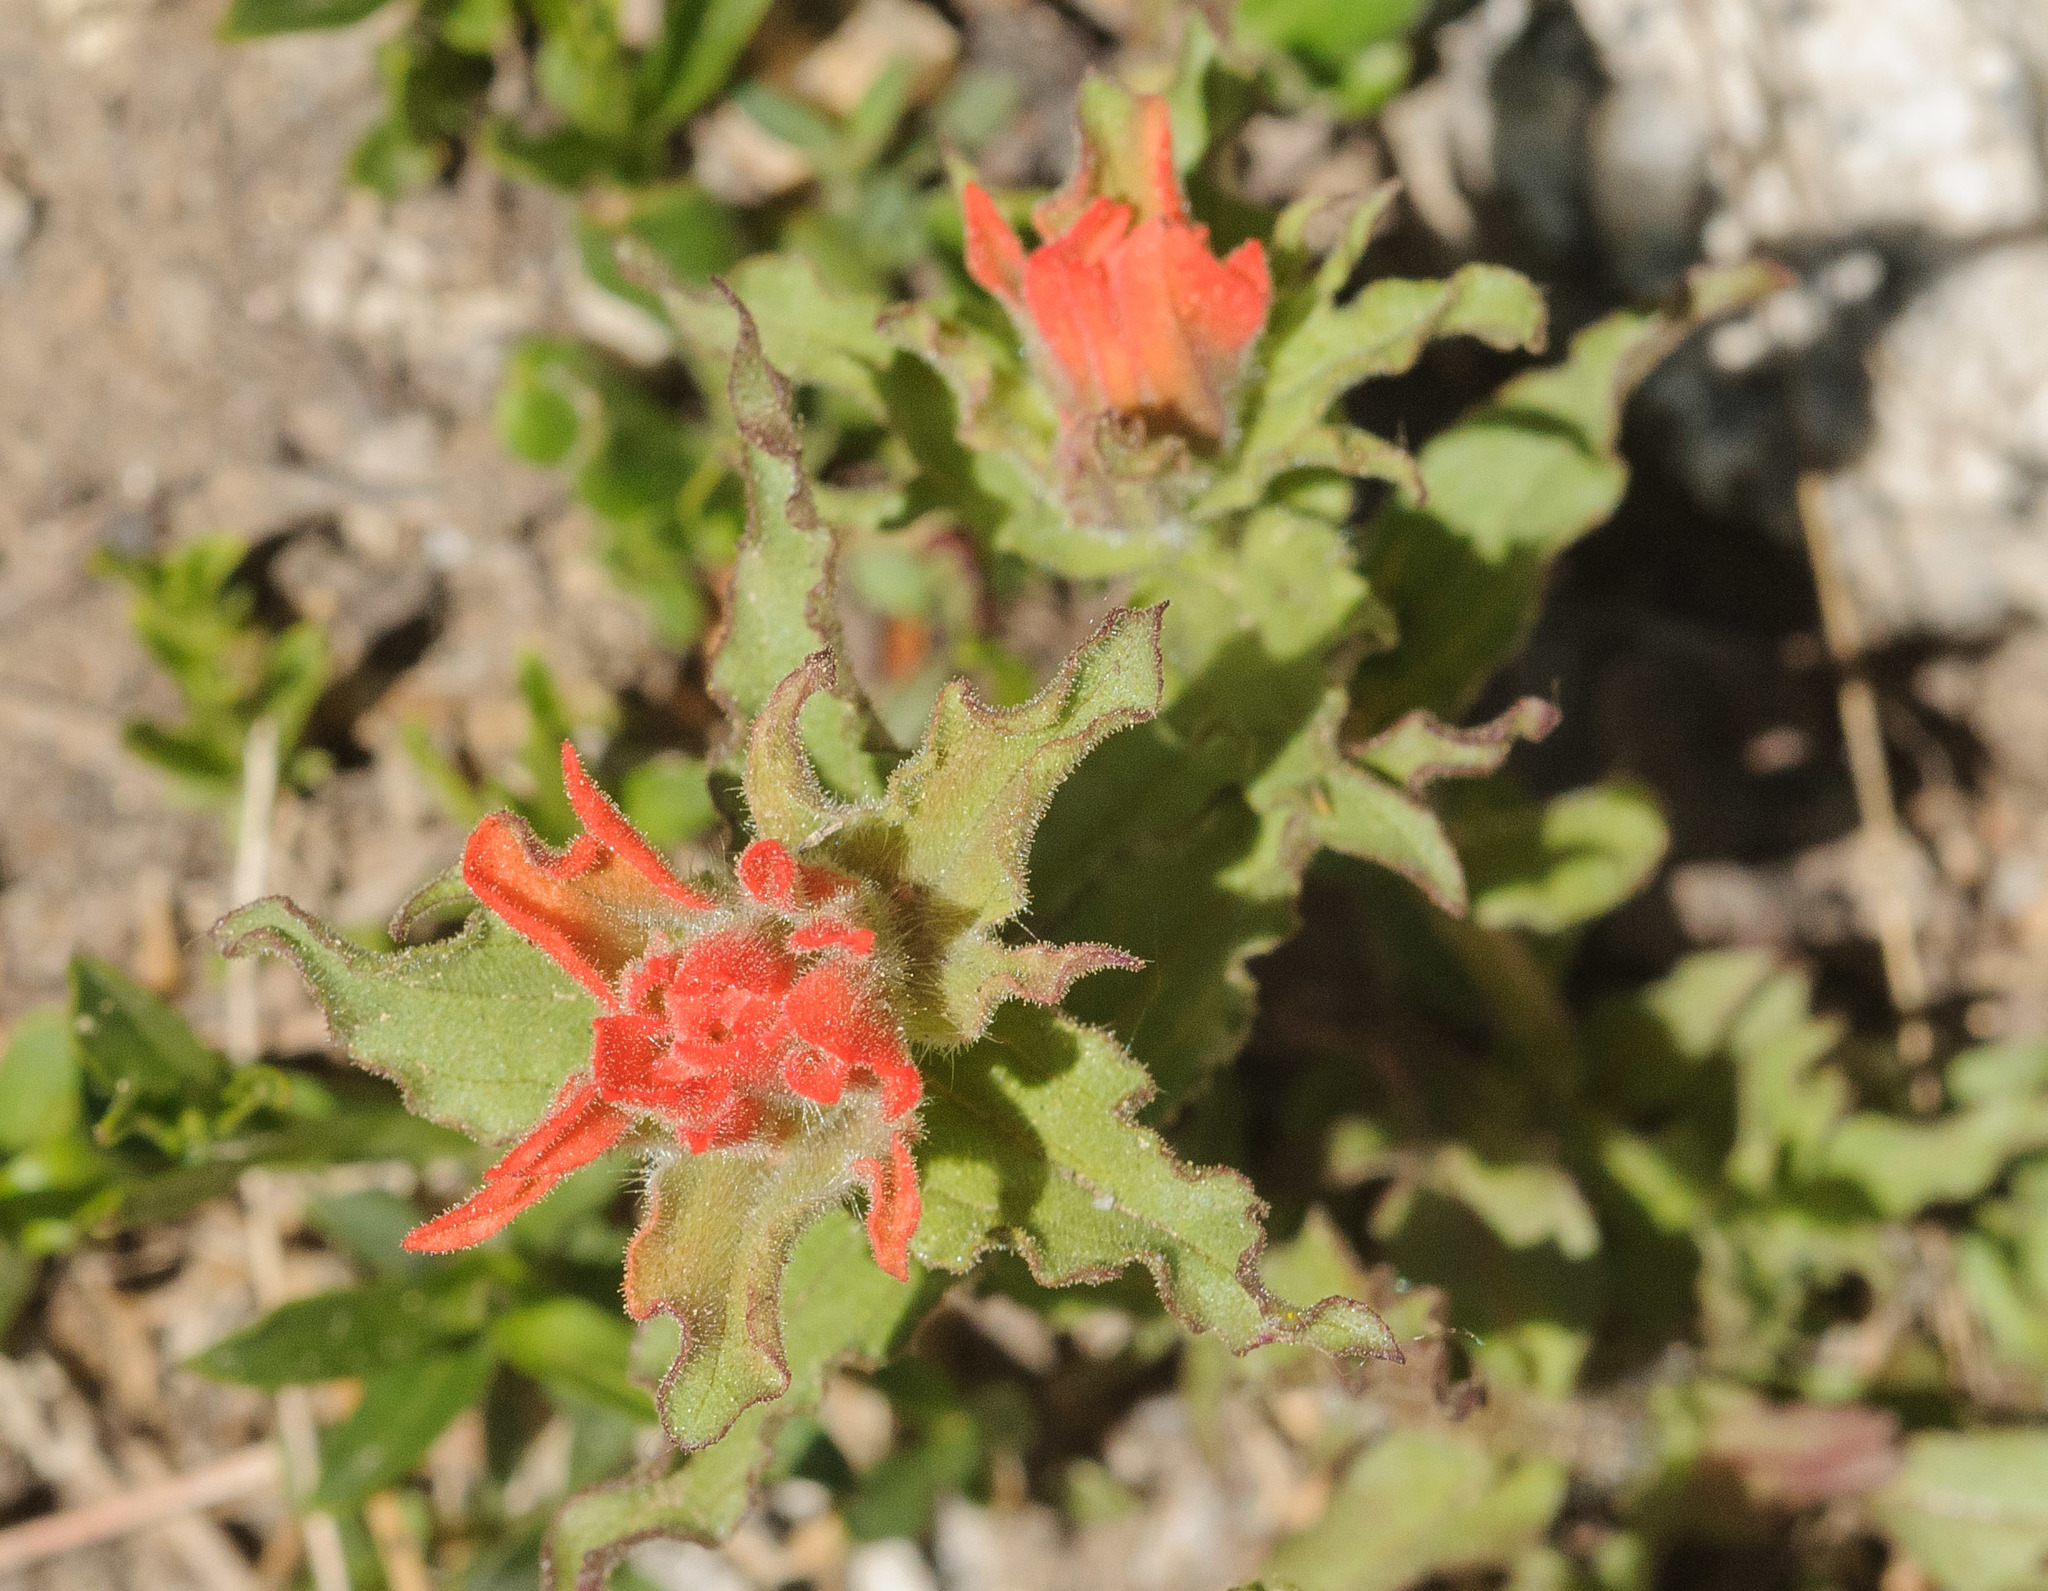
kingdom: Plantae
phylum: Tracheophyta
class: Magnoliopsida
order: Lamiales
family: Orobanchaceae
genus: Castilleja
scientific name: Castilleja applegatei
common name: Wavy-leaf paintbrush
